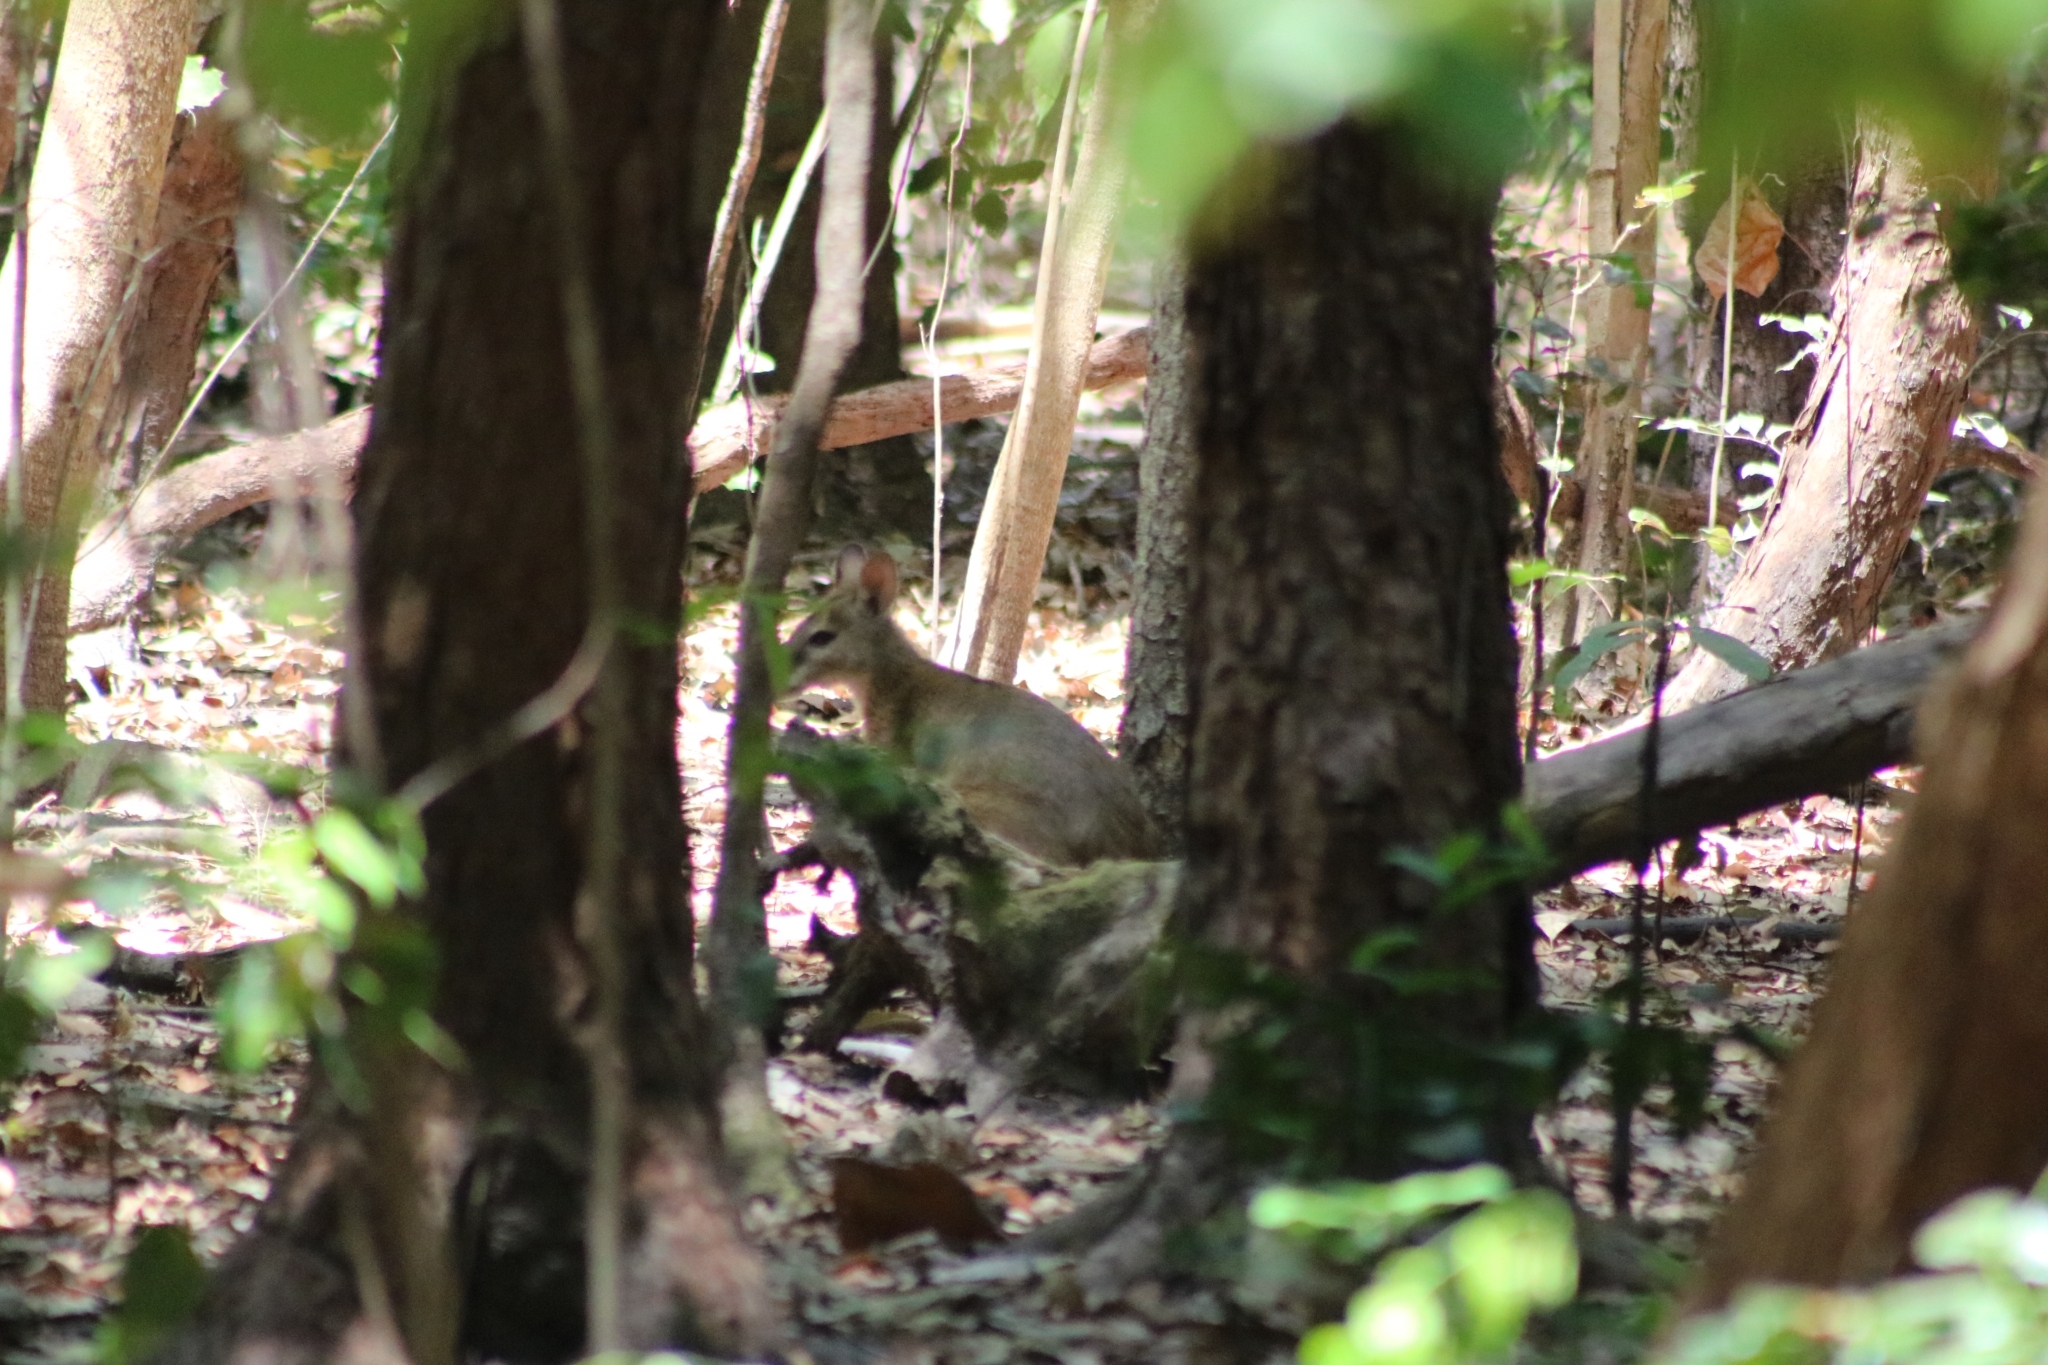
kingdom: Animalia
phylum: Chordata
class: Mammalia
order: Diprotodontia
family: Macropodidae
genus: Macropus
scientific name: Macropus agilis
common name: Agile wallaby
